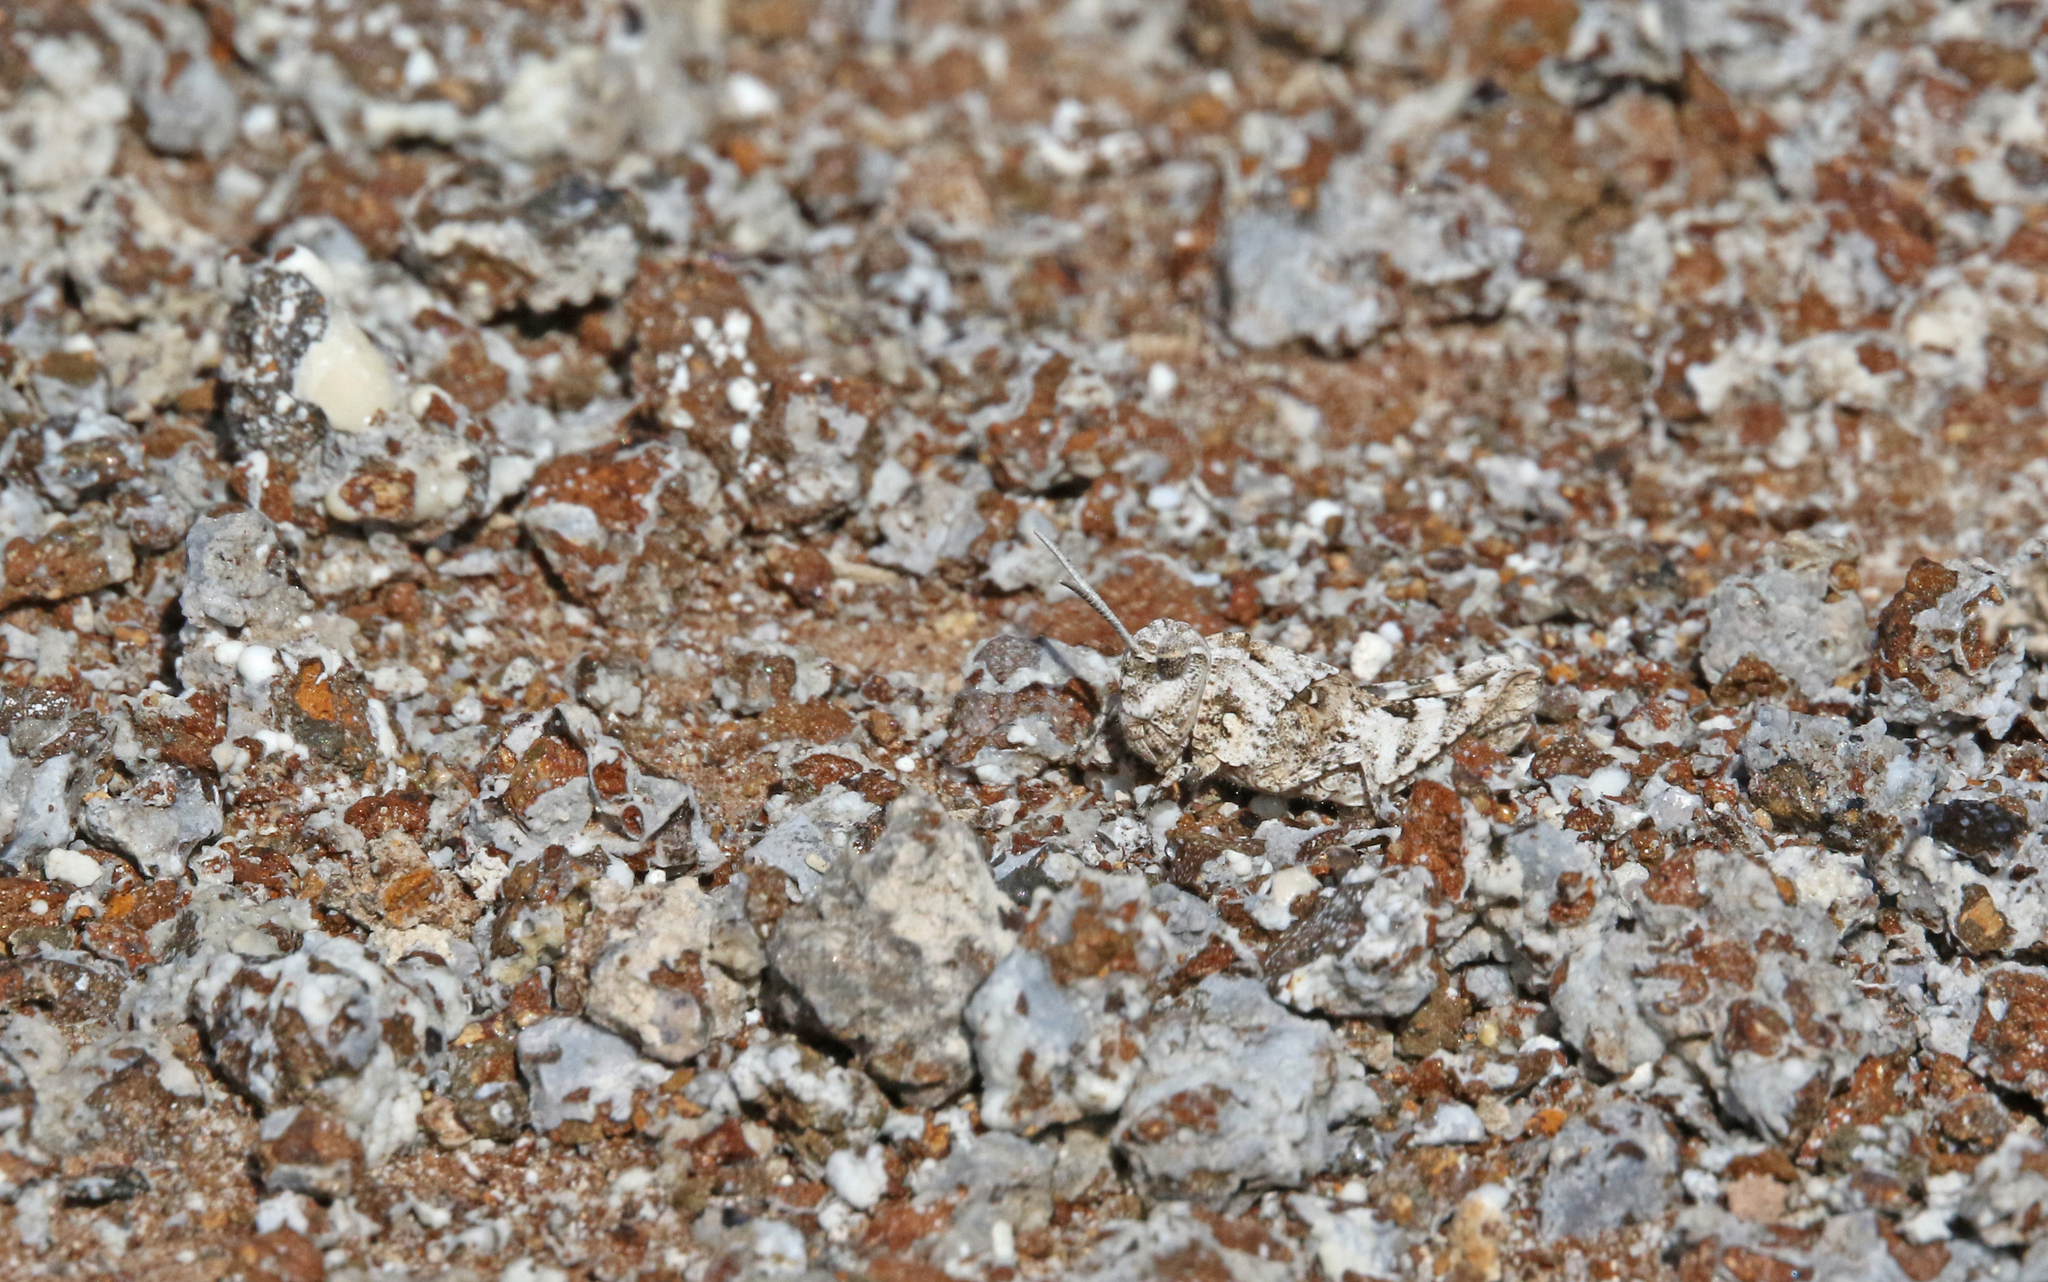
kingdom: Animalia
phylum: Arthropoda
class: Insecta
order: Orthoptera
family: Acrididae
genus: Oedipoda
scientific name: Oedipoda canariensis
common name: Canarian band-winged grasshopper
